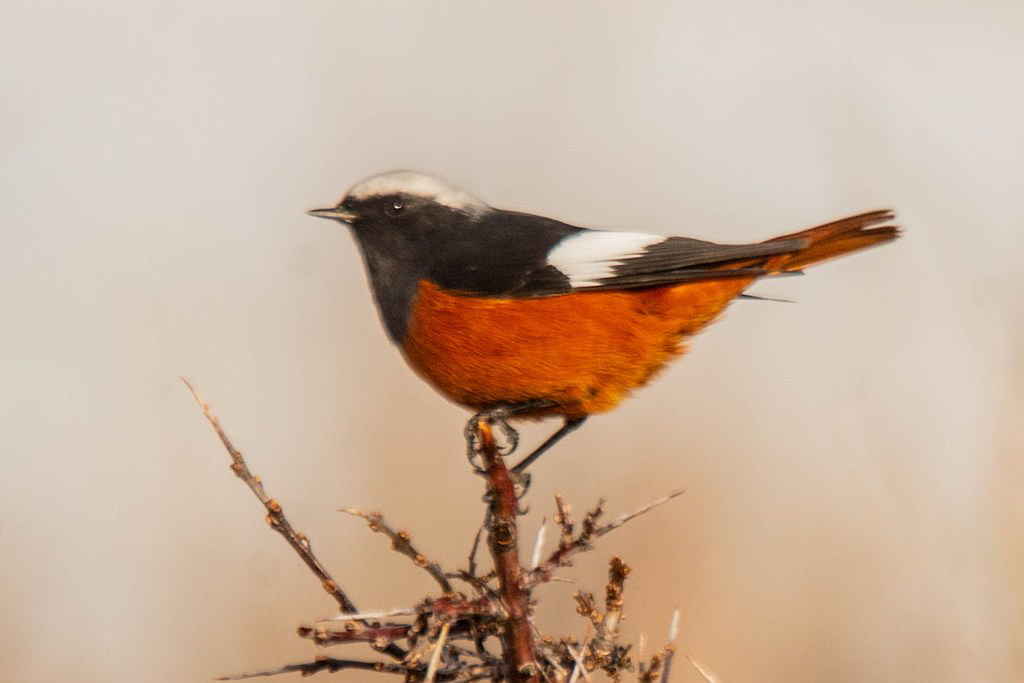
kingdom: Animalia
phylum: Chordata
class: Aves
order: Passeriformes
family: Muscicapidae
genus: Phoenicurus
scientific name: Phoenicurus erythrogastrus
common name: Güldenstädt's redstart
